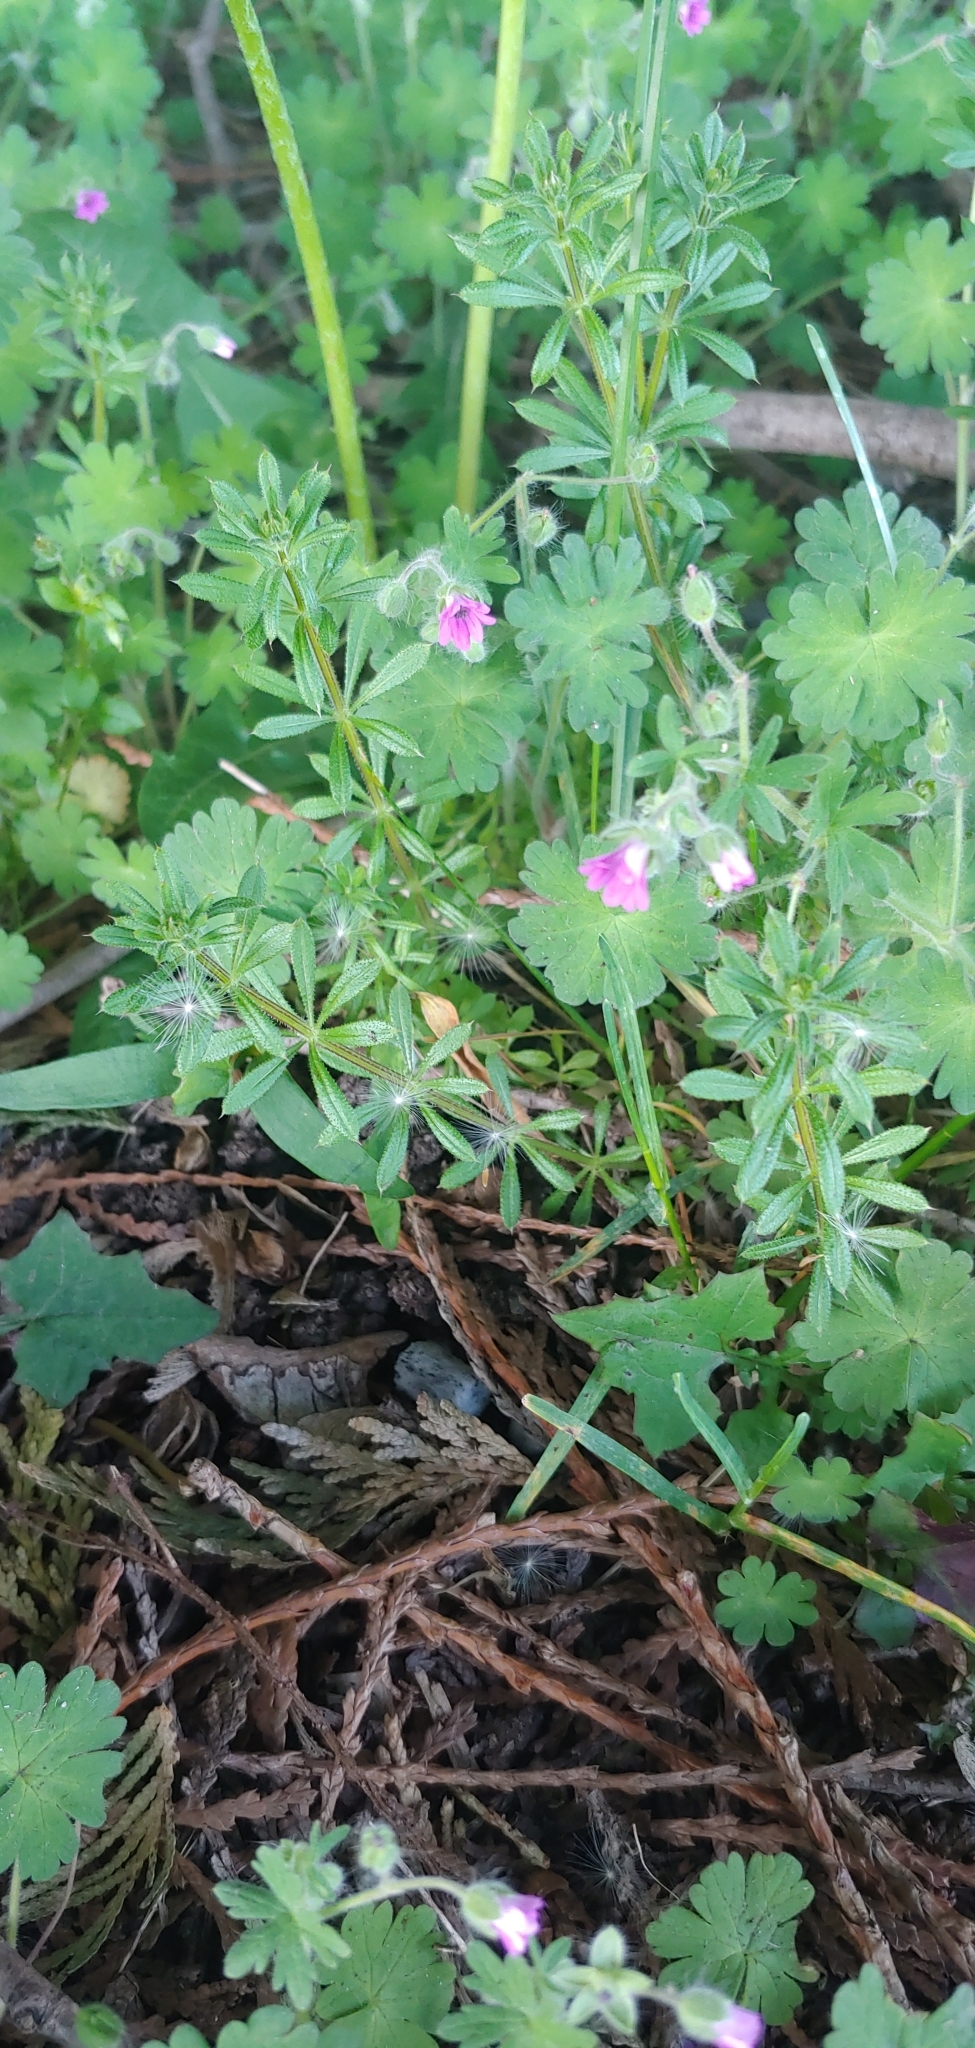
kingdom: Plantae
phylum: Tracheophyta
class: Magnoliopsida
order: Geraniales
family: Geraniaceae
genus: Geranium
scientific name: Geranium molle
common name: Dove's-foot crane's-bill
